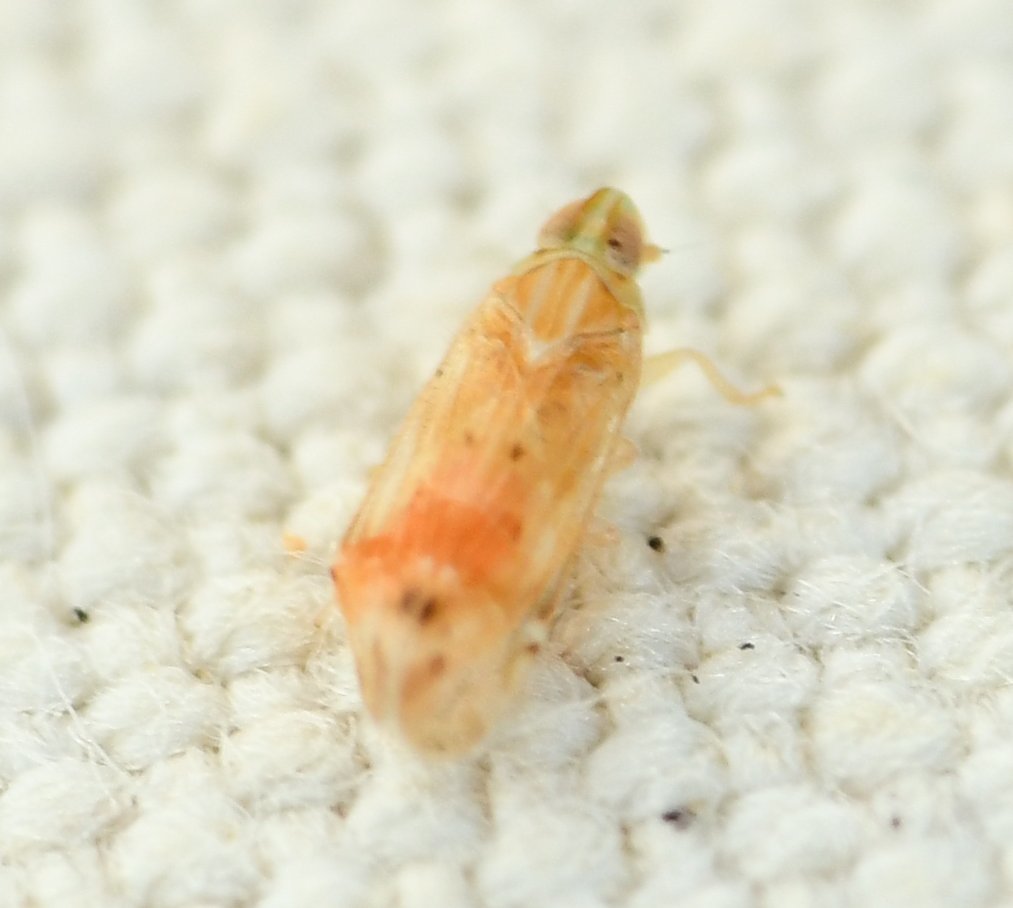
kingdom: Animalia
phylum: Arthropoda
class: Insecta
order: Hemiptera
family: Cixiidae
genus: Haplaxius
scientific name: Haplaxius lunatus
